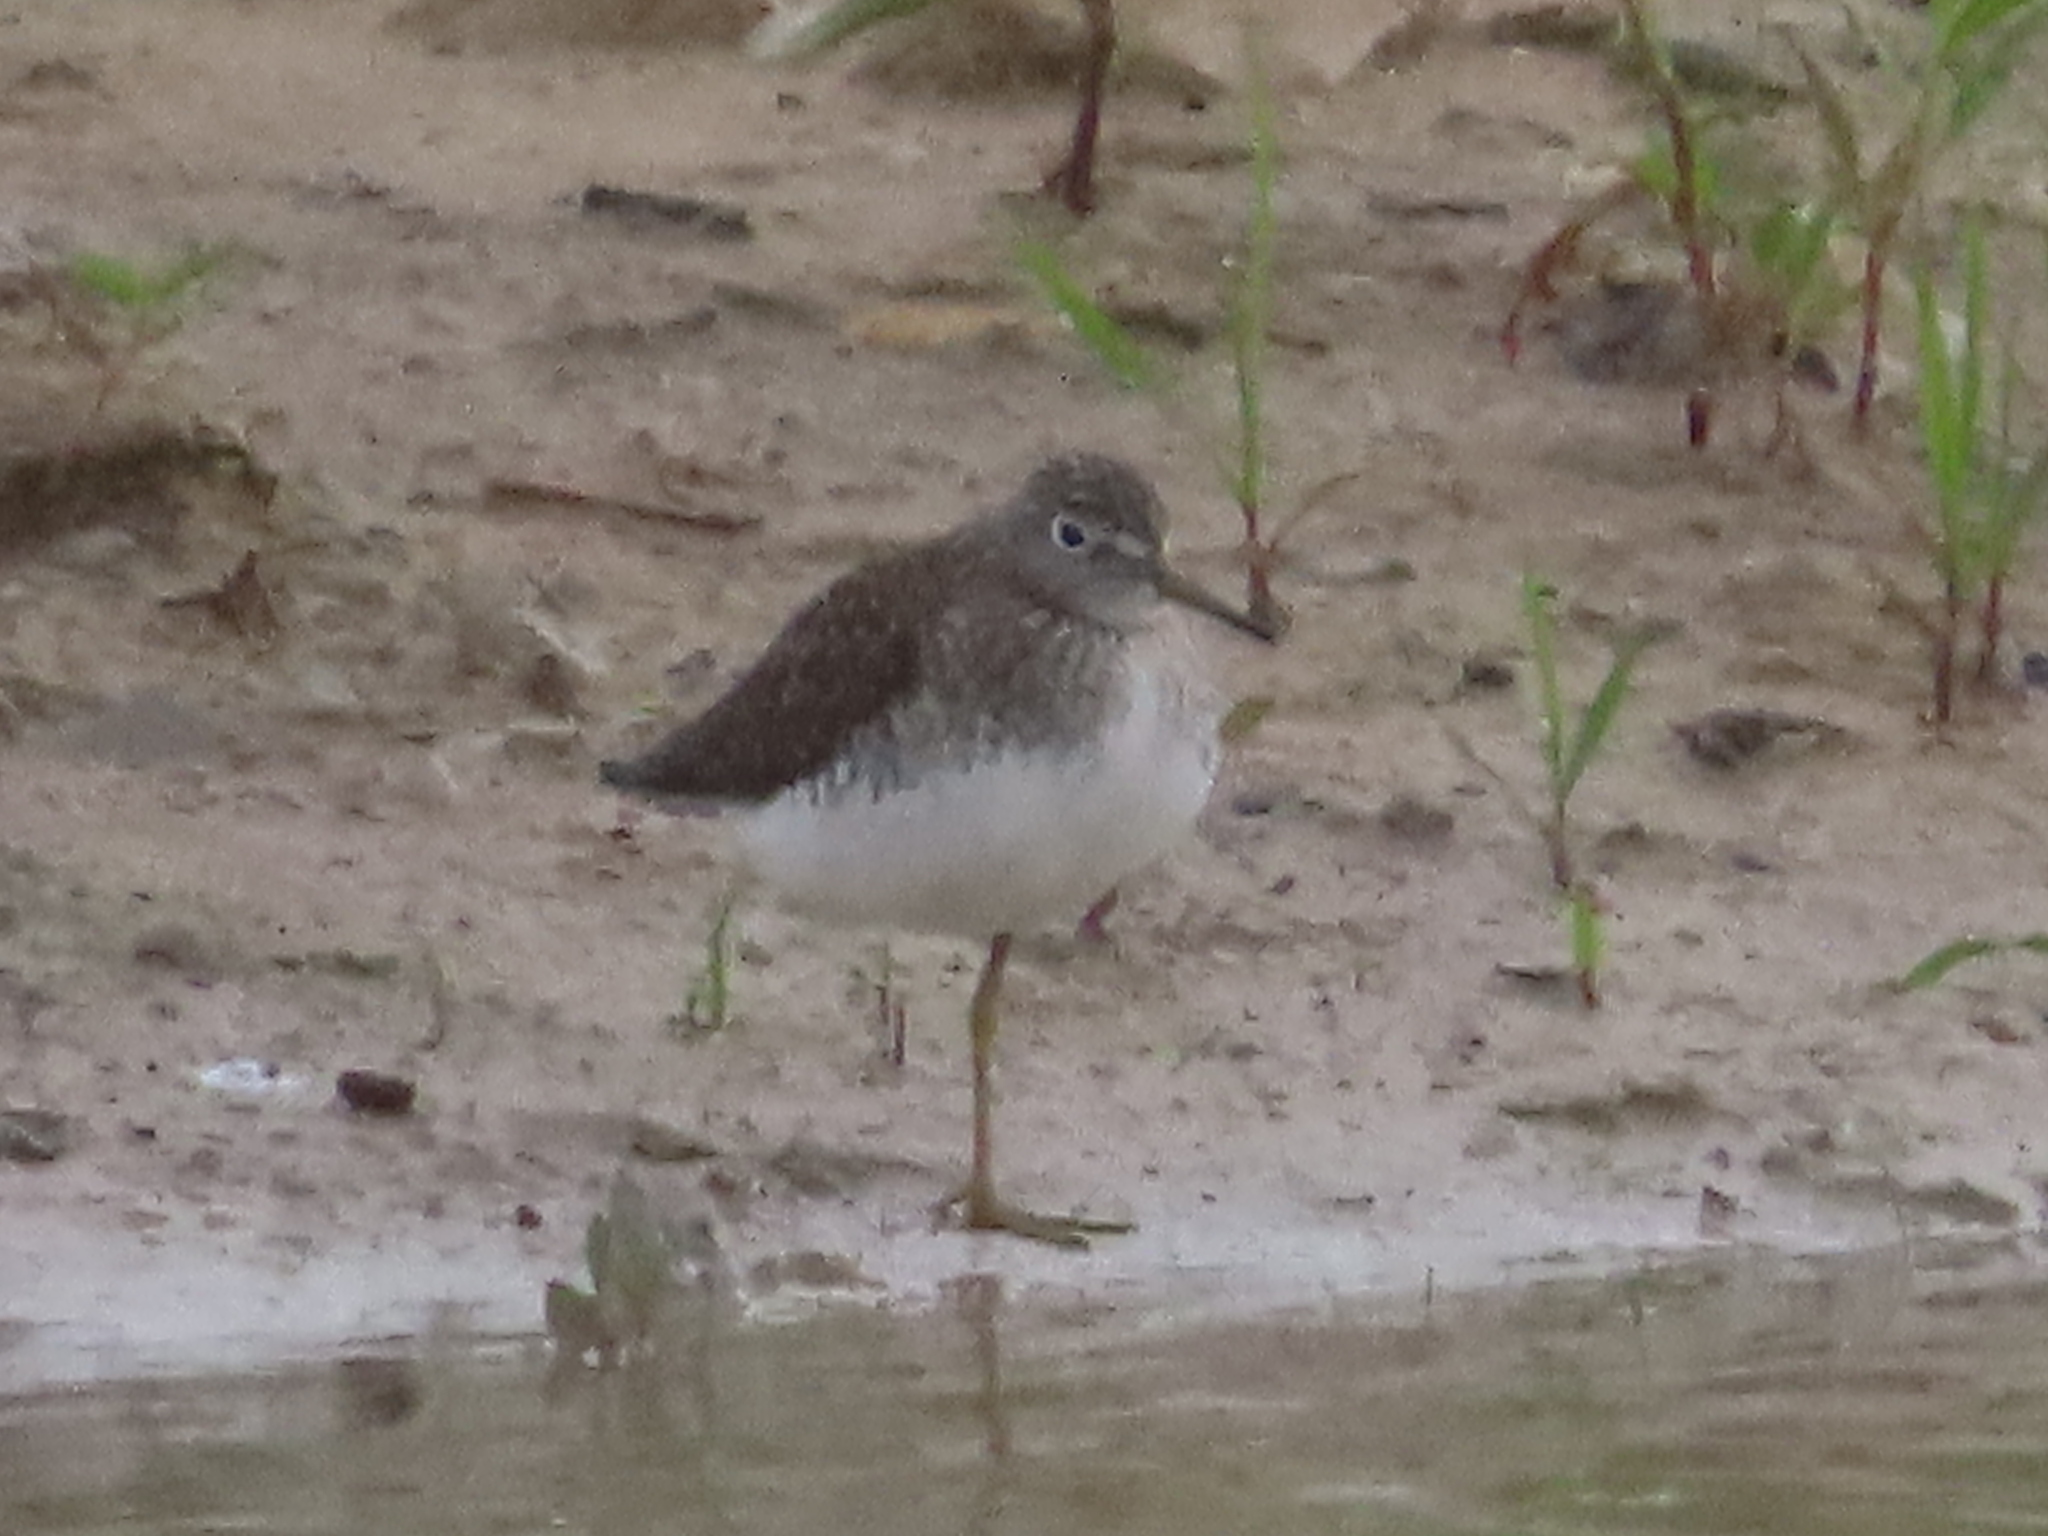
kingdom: Animalia
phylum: Chordata
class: Aves
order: Charadriiformes
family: Scolopacidae
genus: Tringa
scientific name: Tringa solitaria
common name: Solitary sandpiper
